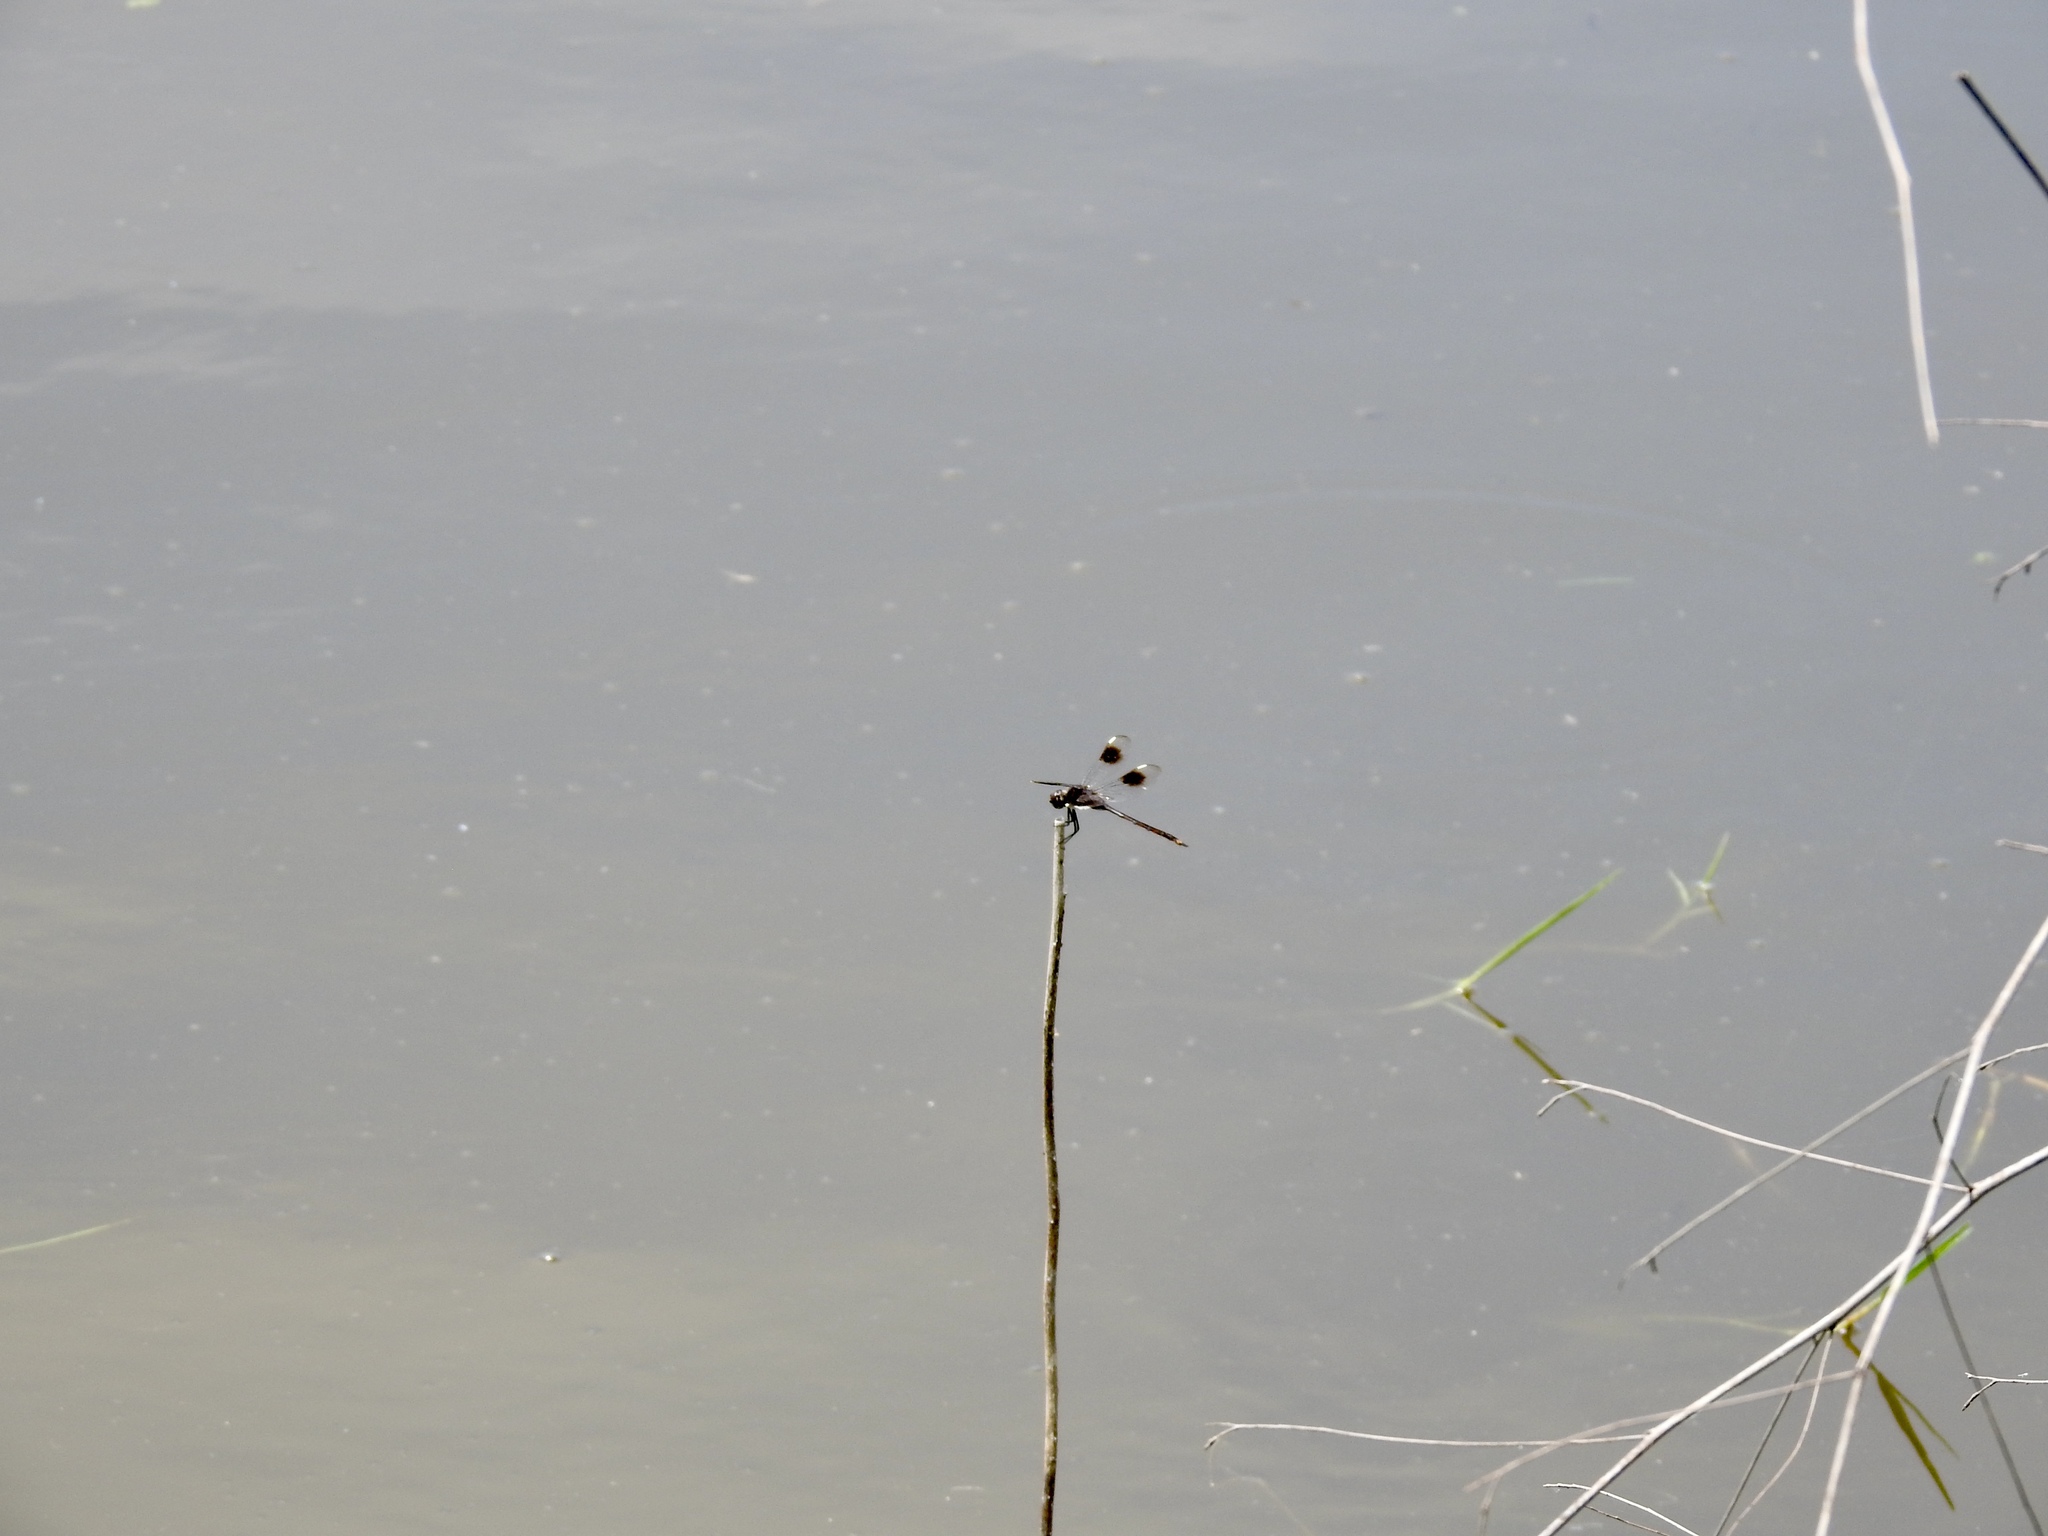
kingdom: Animalia
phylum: Arthropoda
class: Insecta
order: Odonata
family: Libellulidae
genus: Brachymesia
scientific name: Brachymesia gravida
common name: Four-spotted pennant
